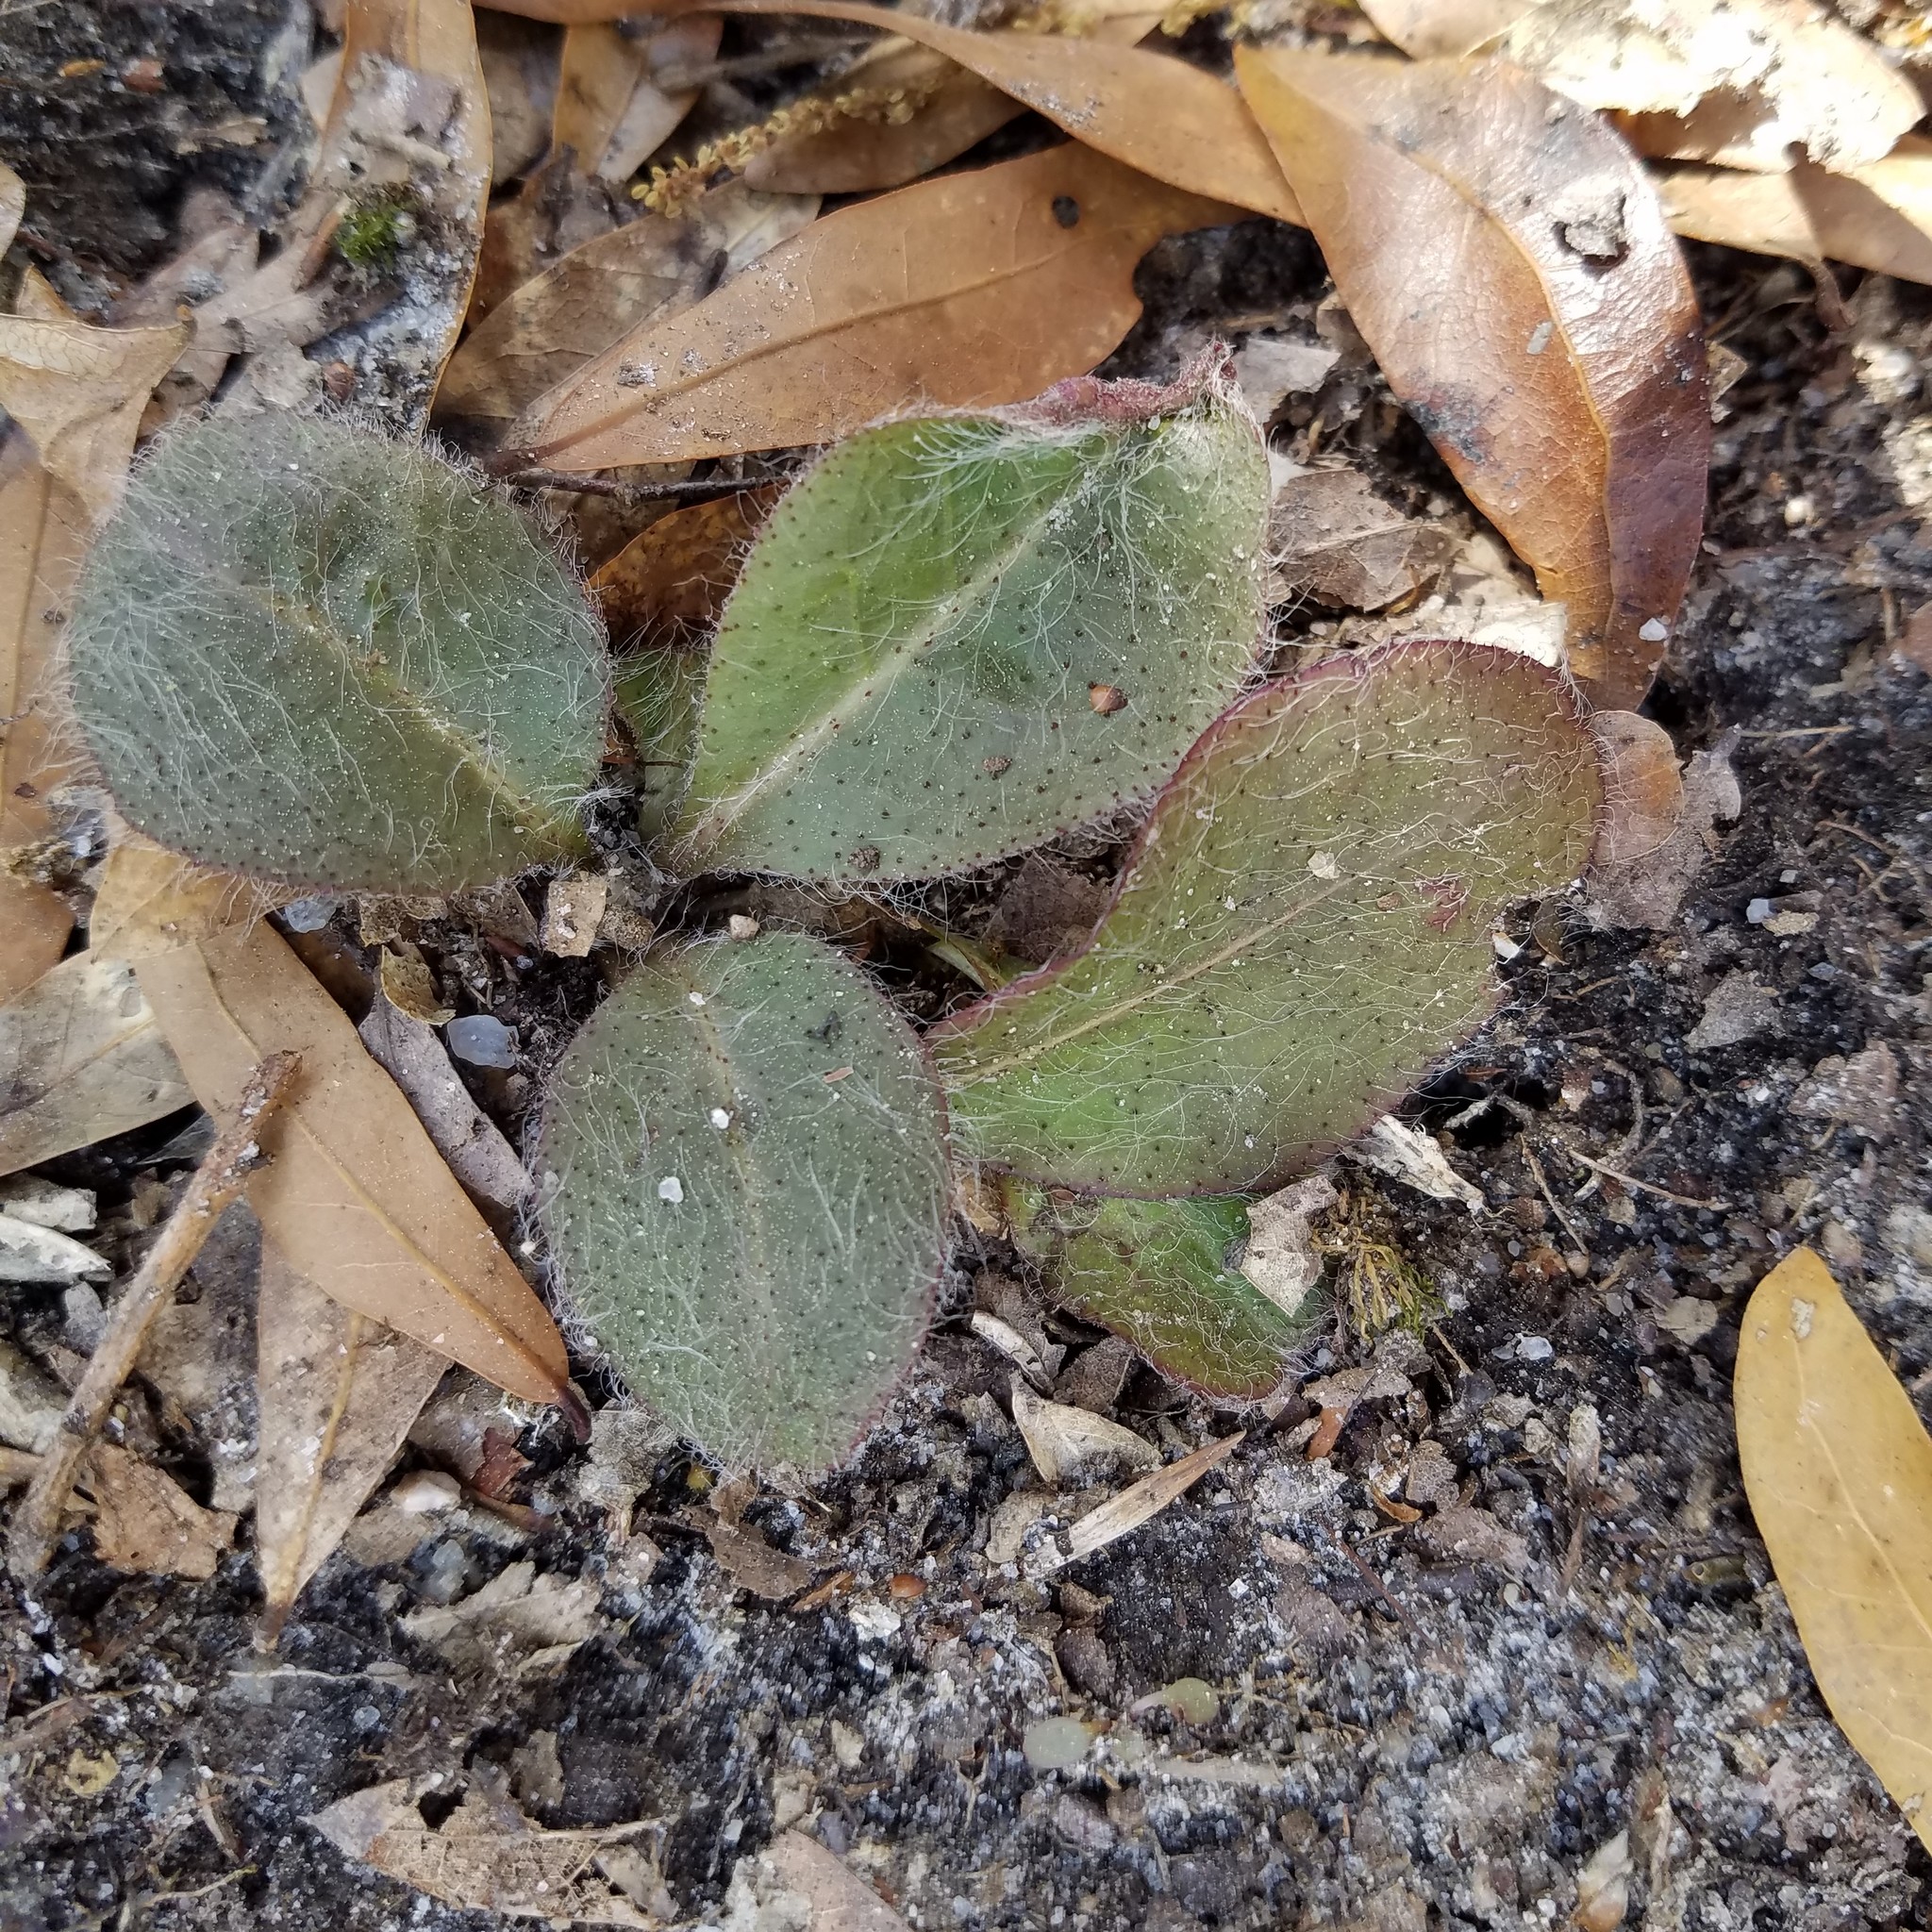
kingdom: Plantae
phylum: Tracheophyta
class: Magnoliopsida
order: Asterales
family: Asteraceae
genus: Hieracium
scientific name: Hieracium gronovii
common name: Beaked hawkweed
